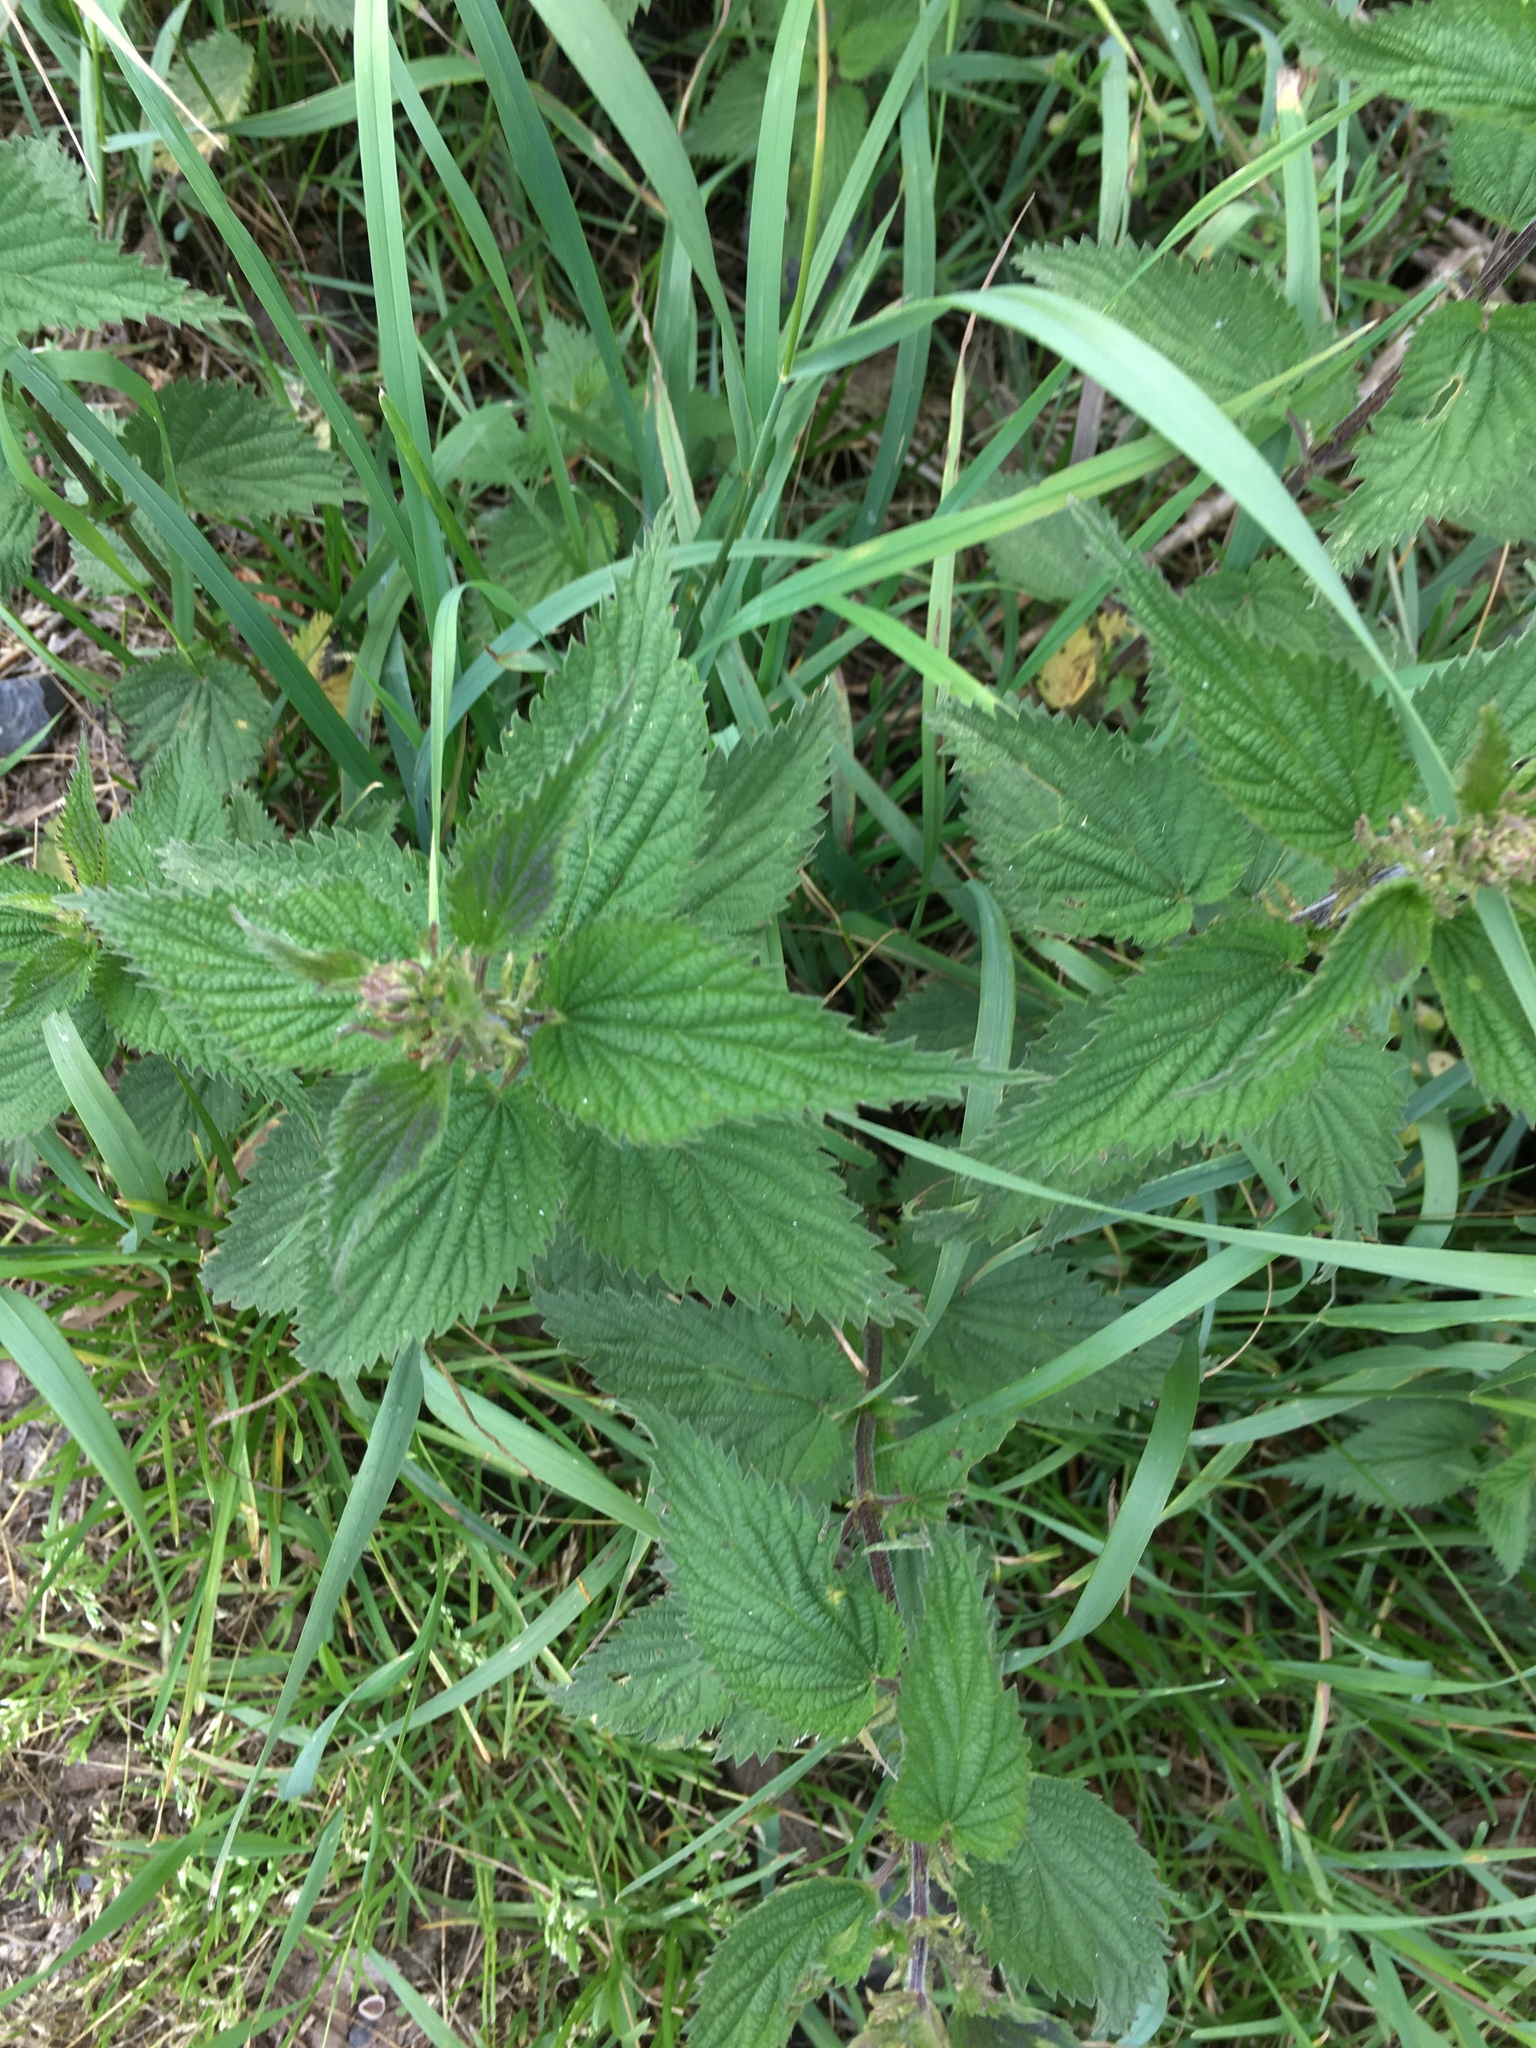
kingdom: Plantae
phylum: Tracheophyta
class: Magnoliopsida
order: Rosales
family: Urticaceae
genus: Urtica
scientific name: Urtica dioica
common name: Common nettle
